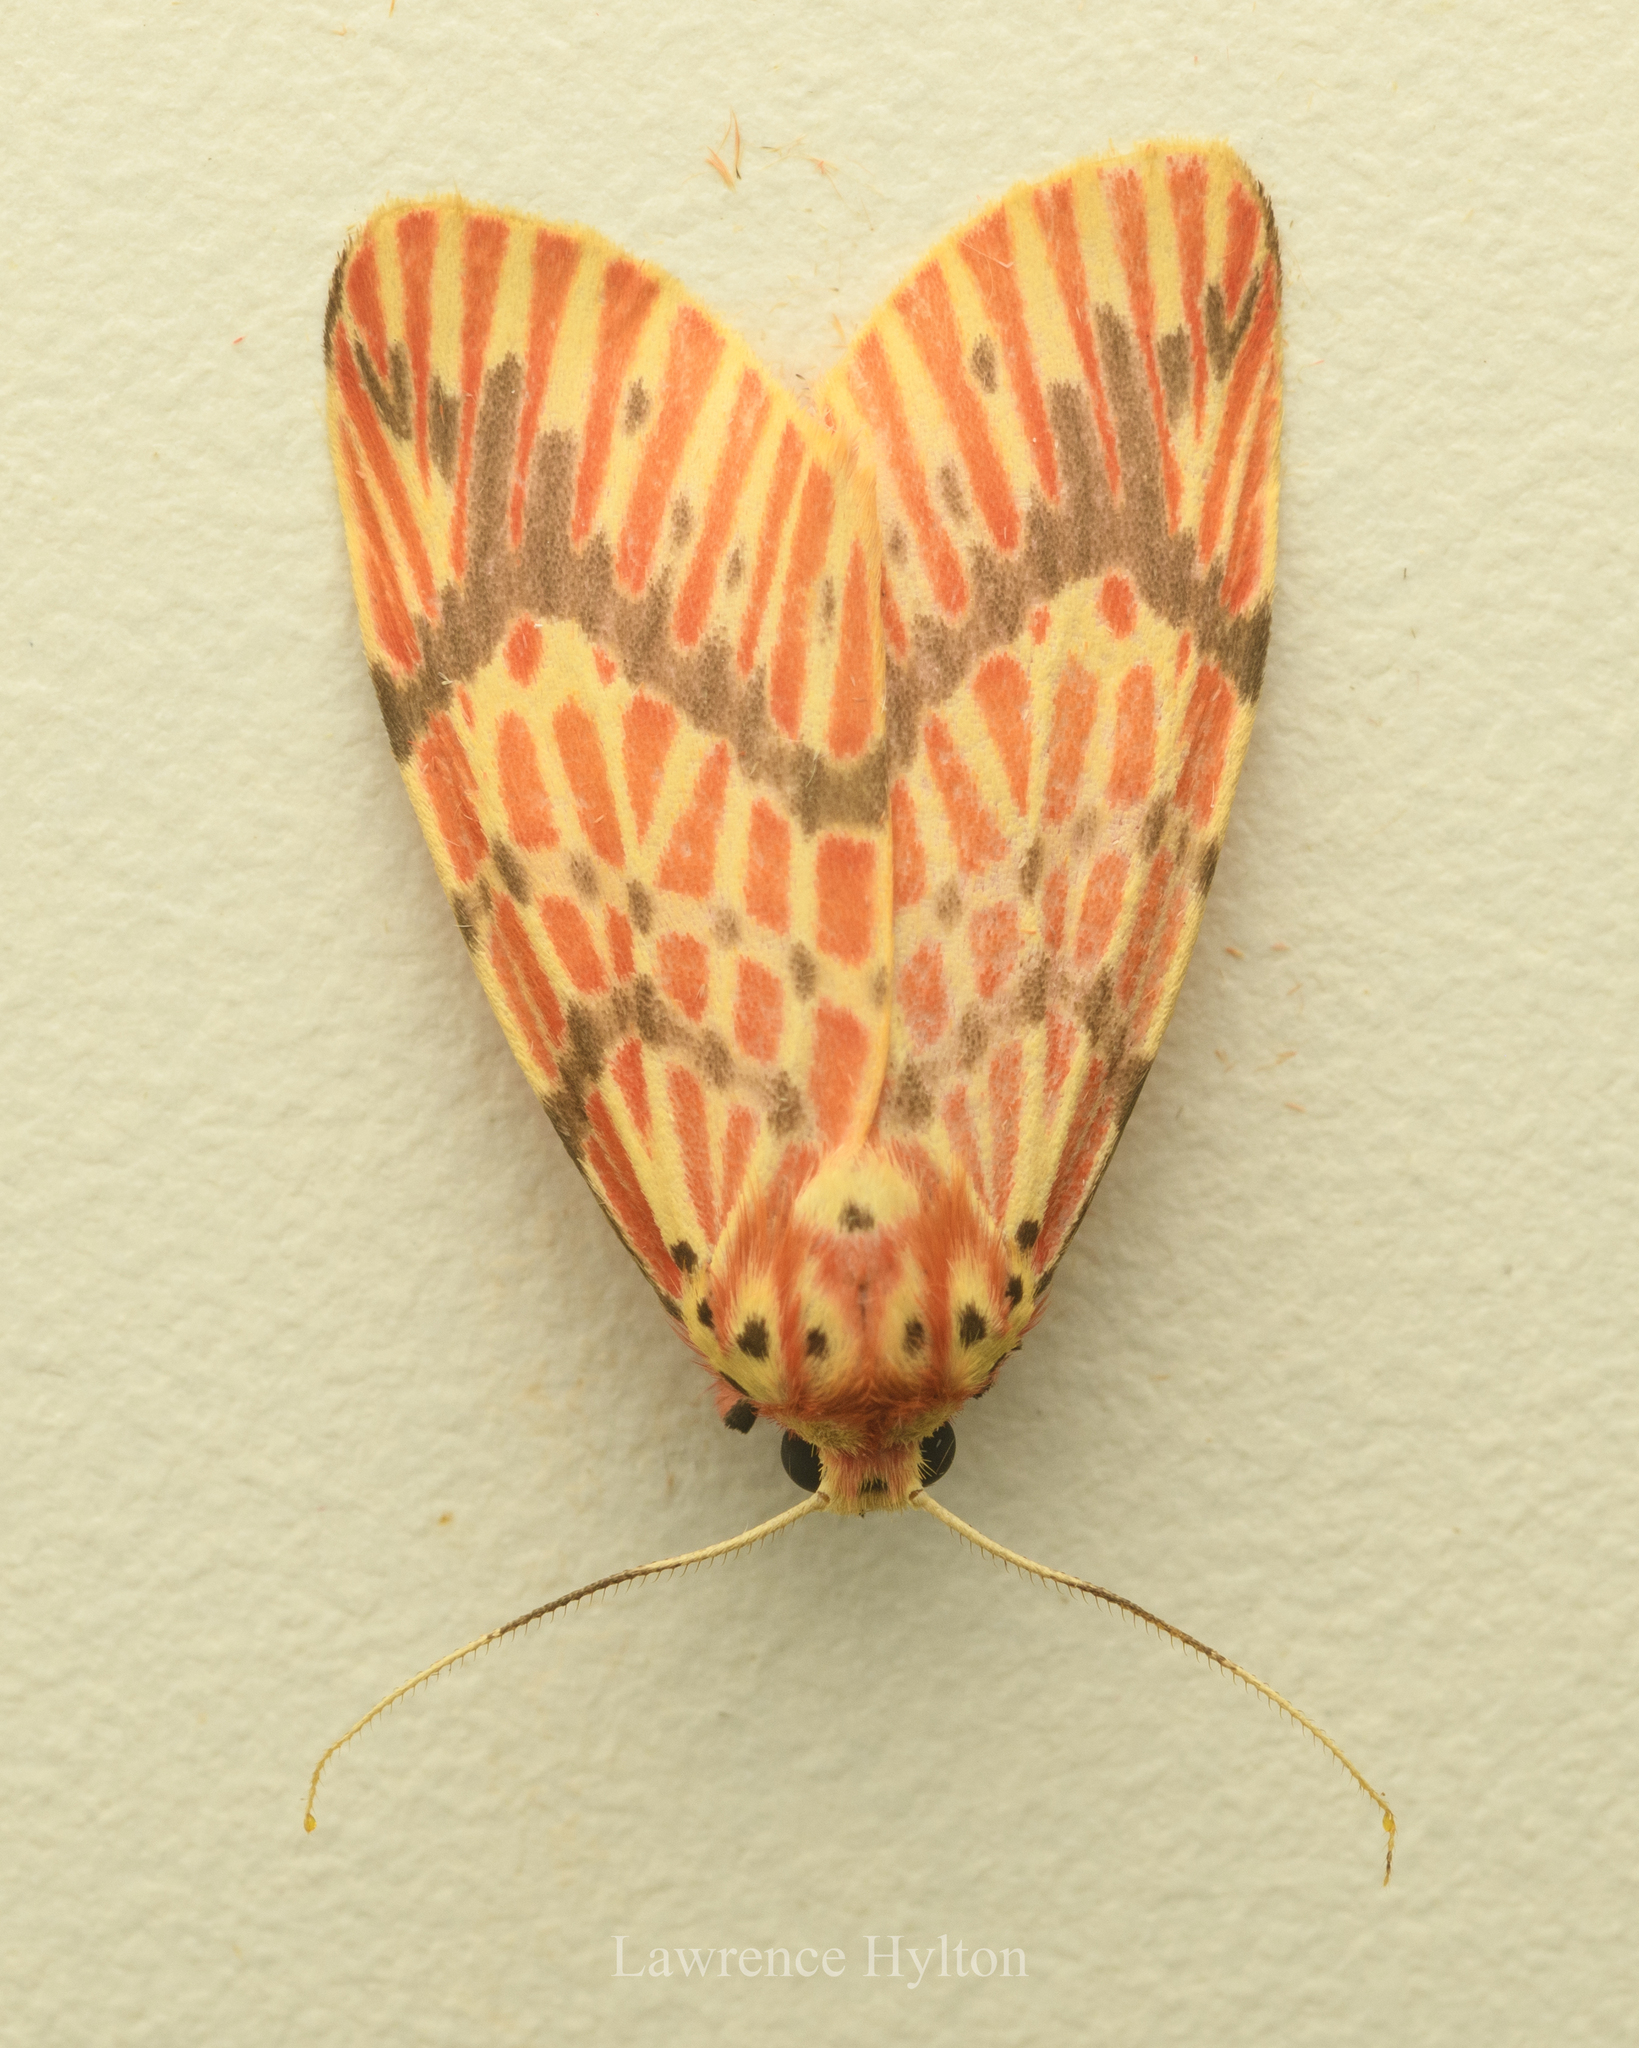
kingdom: Animalia
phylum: Arthropoda
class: Insecta
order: Lepidoptera
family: Erebidae
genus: Barsine
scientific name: Barsine striata
